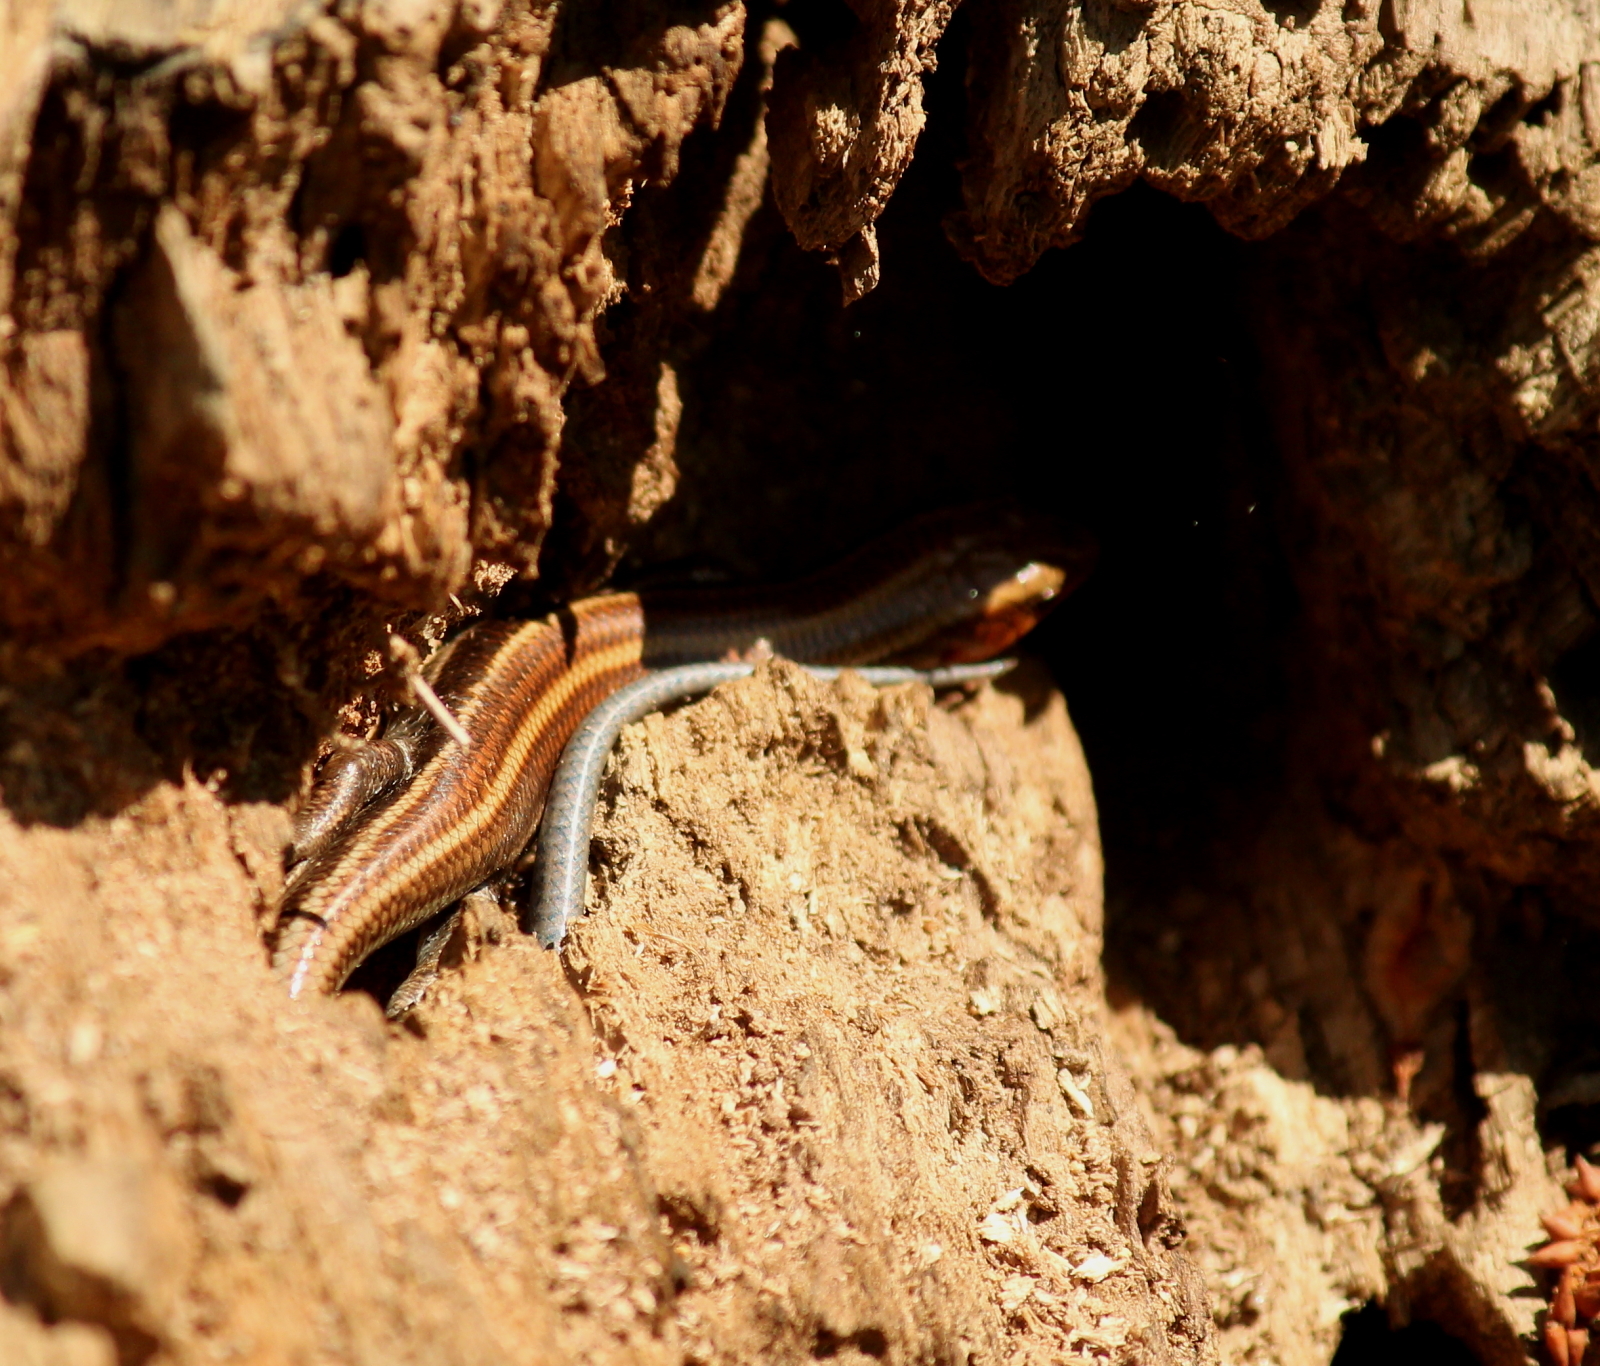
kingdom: Animalia
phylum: Chordata
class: Squamata
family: Scincidae
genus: Plestiodon
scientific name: Plestiodon
